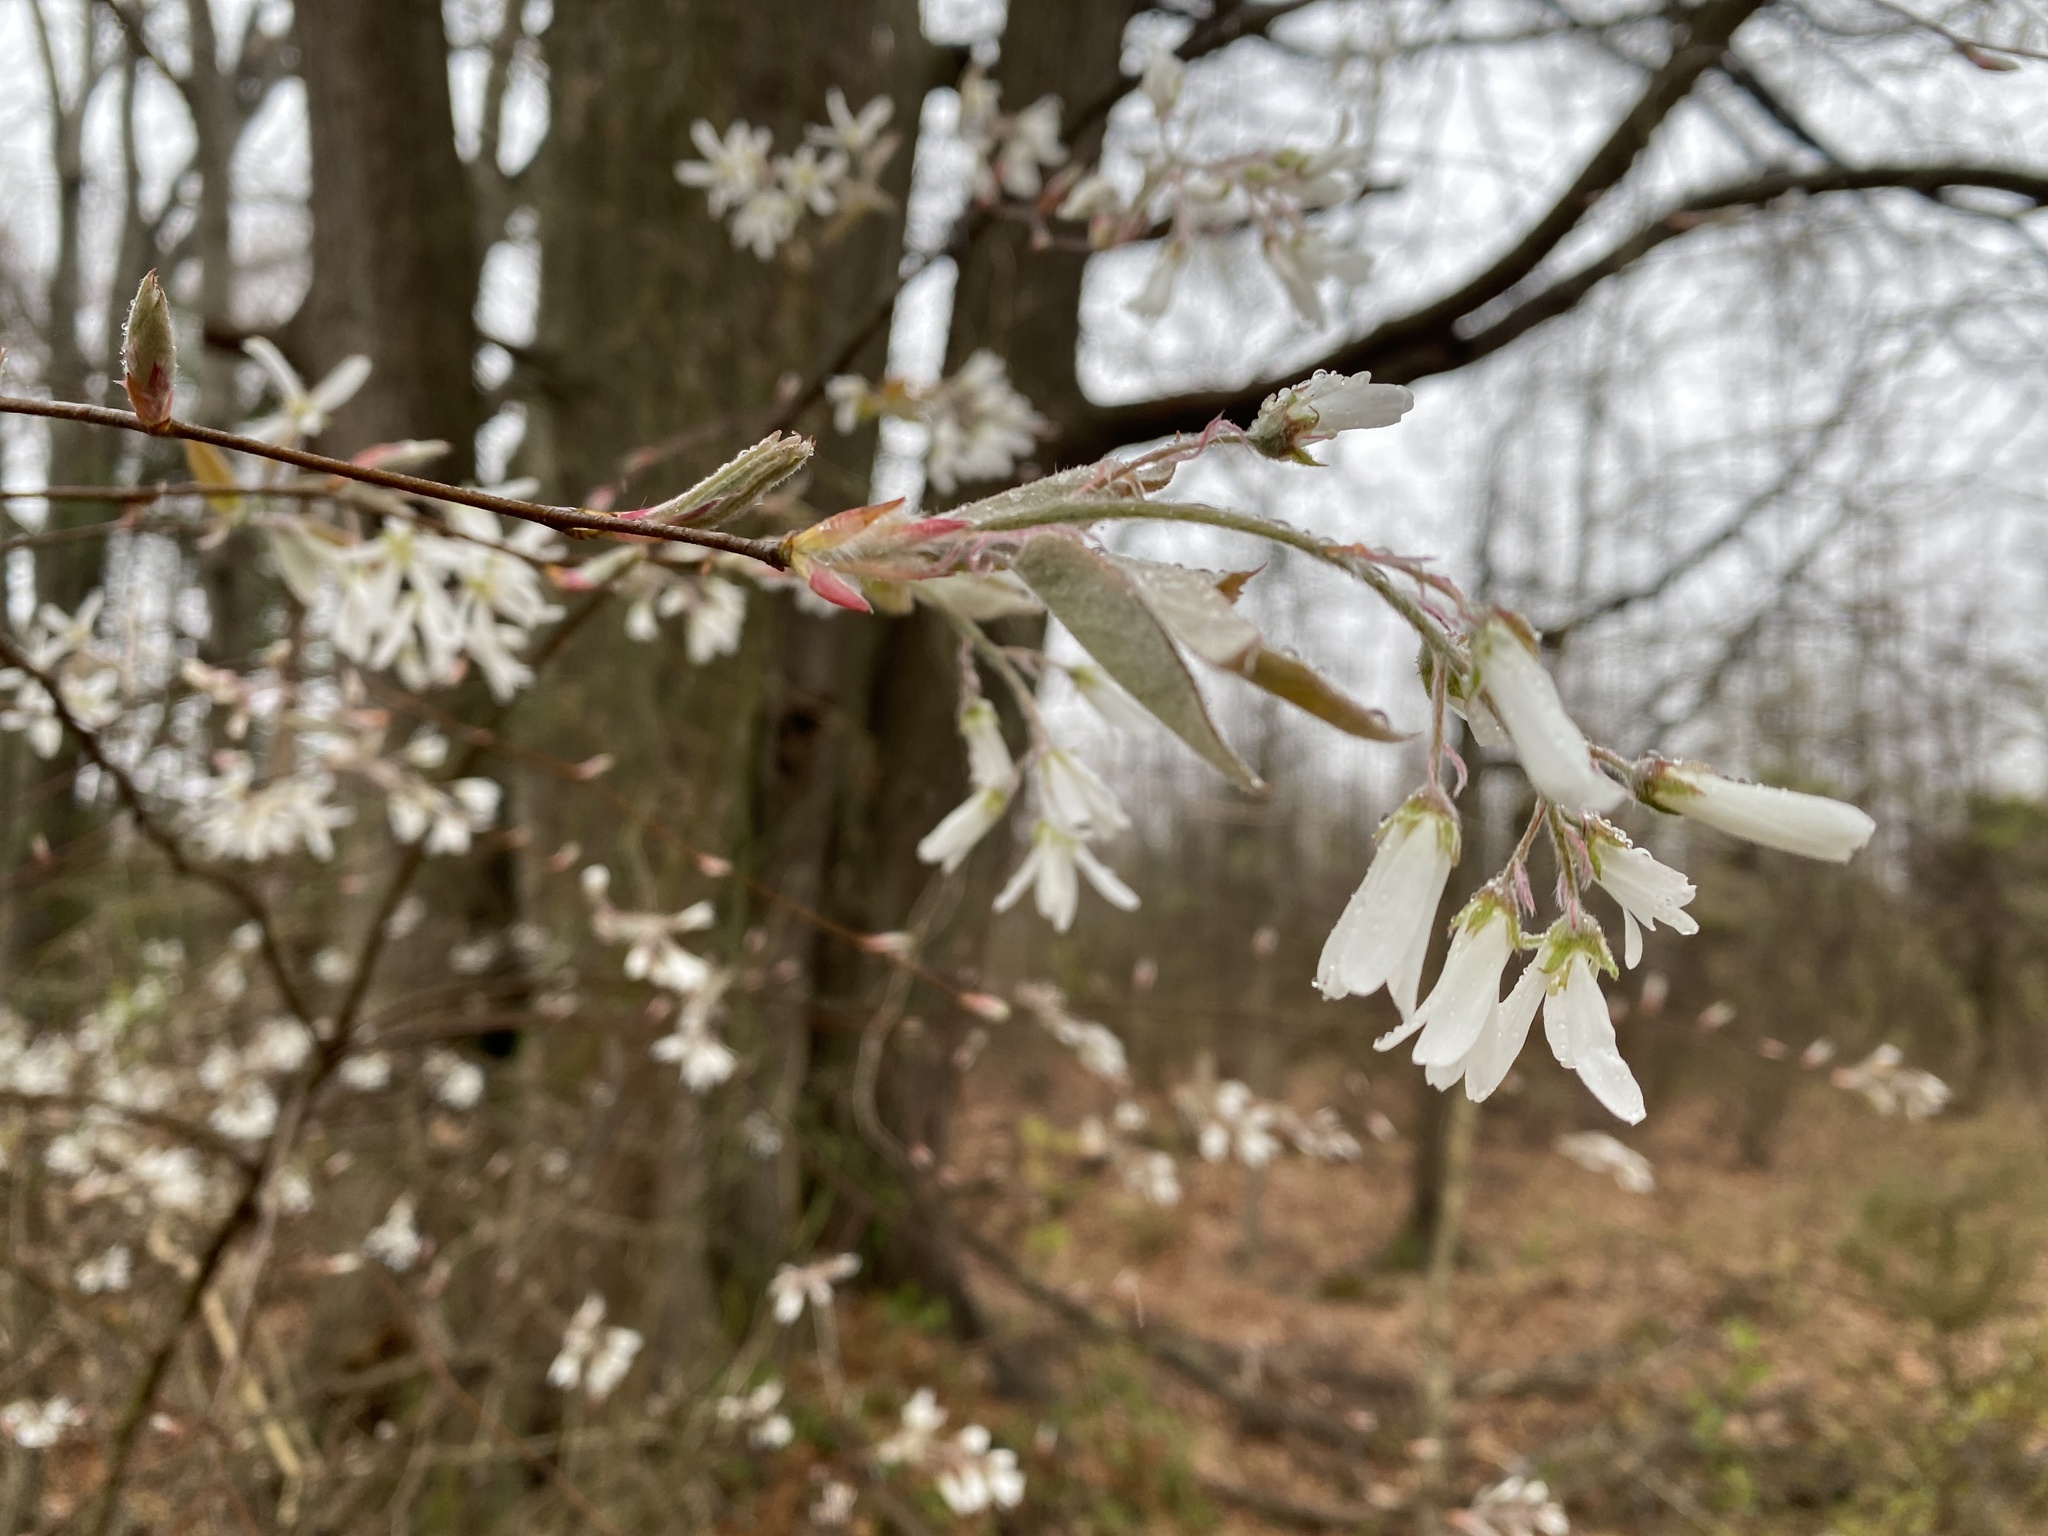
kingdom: Plantae
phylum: Tracheophyta
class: Magnoliopsida
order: Rosales
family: Rosaceae
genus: Amelanchier
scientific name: Amelanchier arborea
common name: Downy serviceberry
